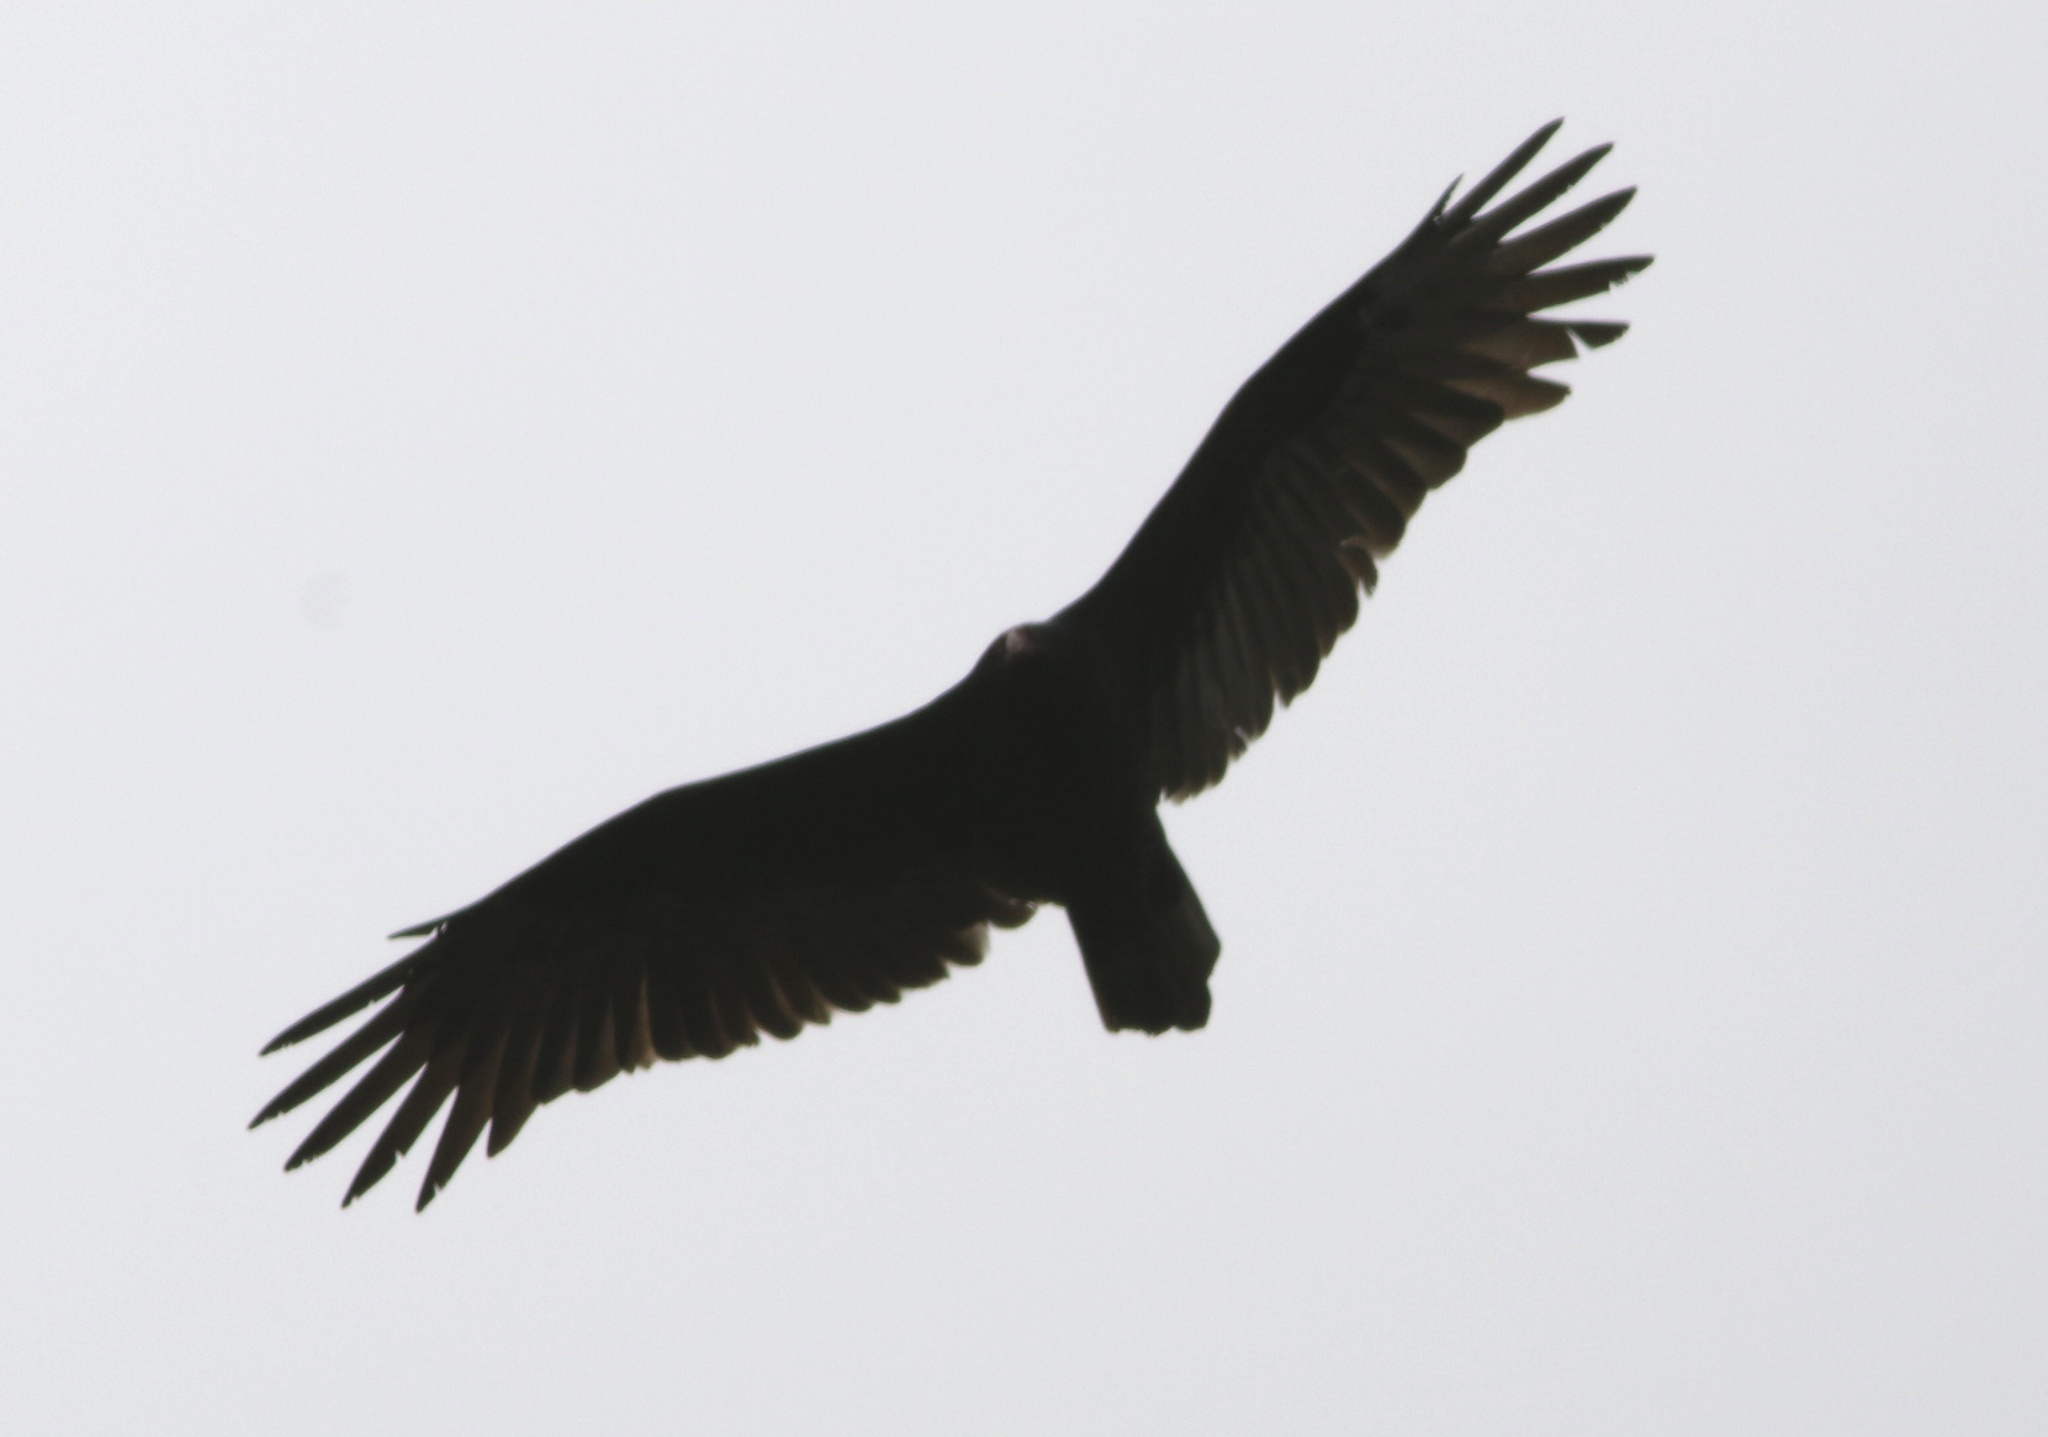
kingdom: Animalia
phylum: Chordata
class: Aves
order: Accipitriformes
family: Cathartidae
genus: Cathartes
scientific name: Cathartes aura
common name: Turkey vulture
